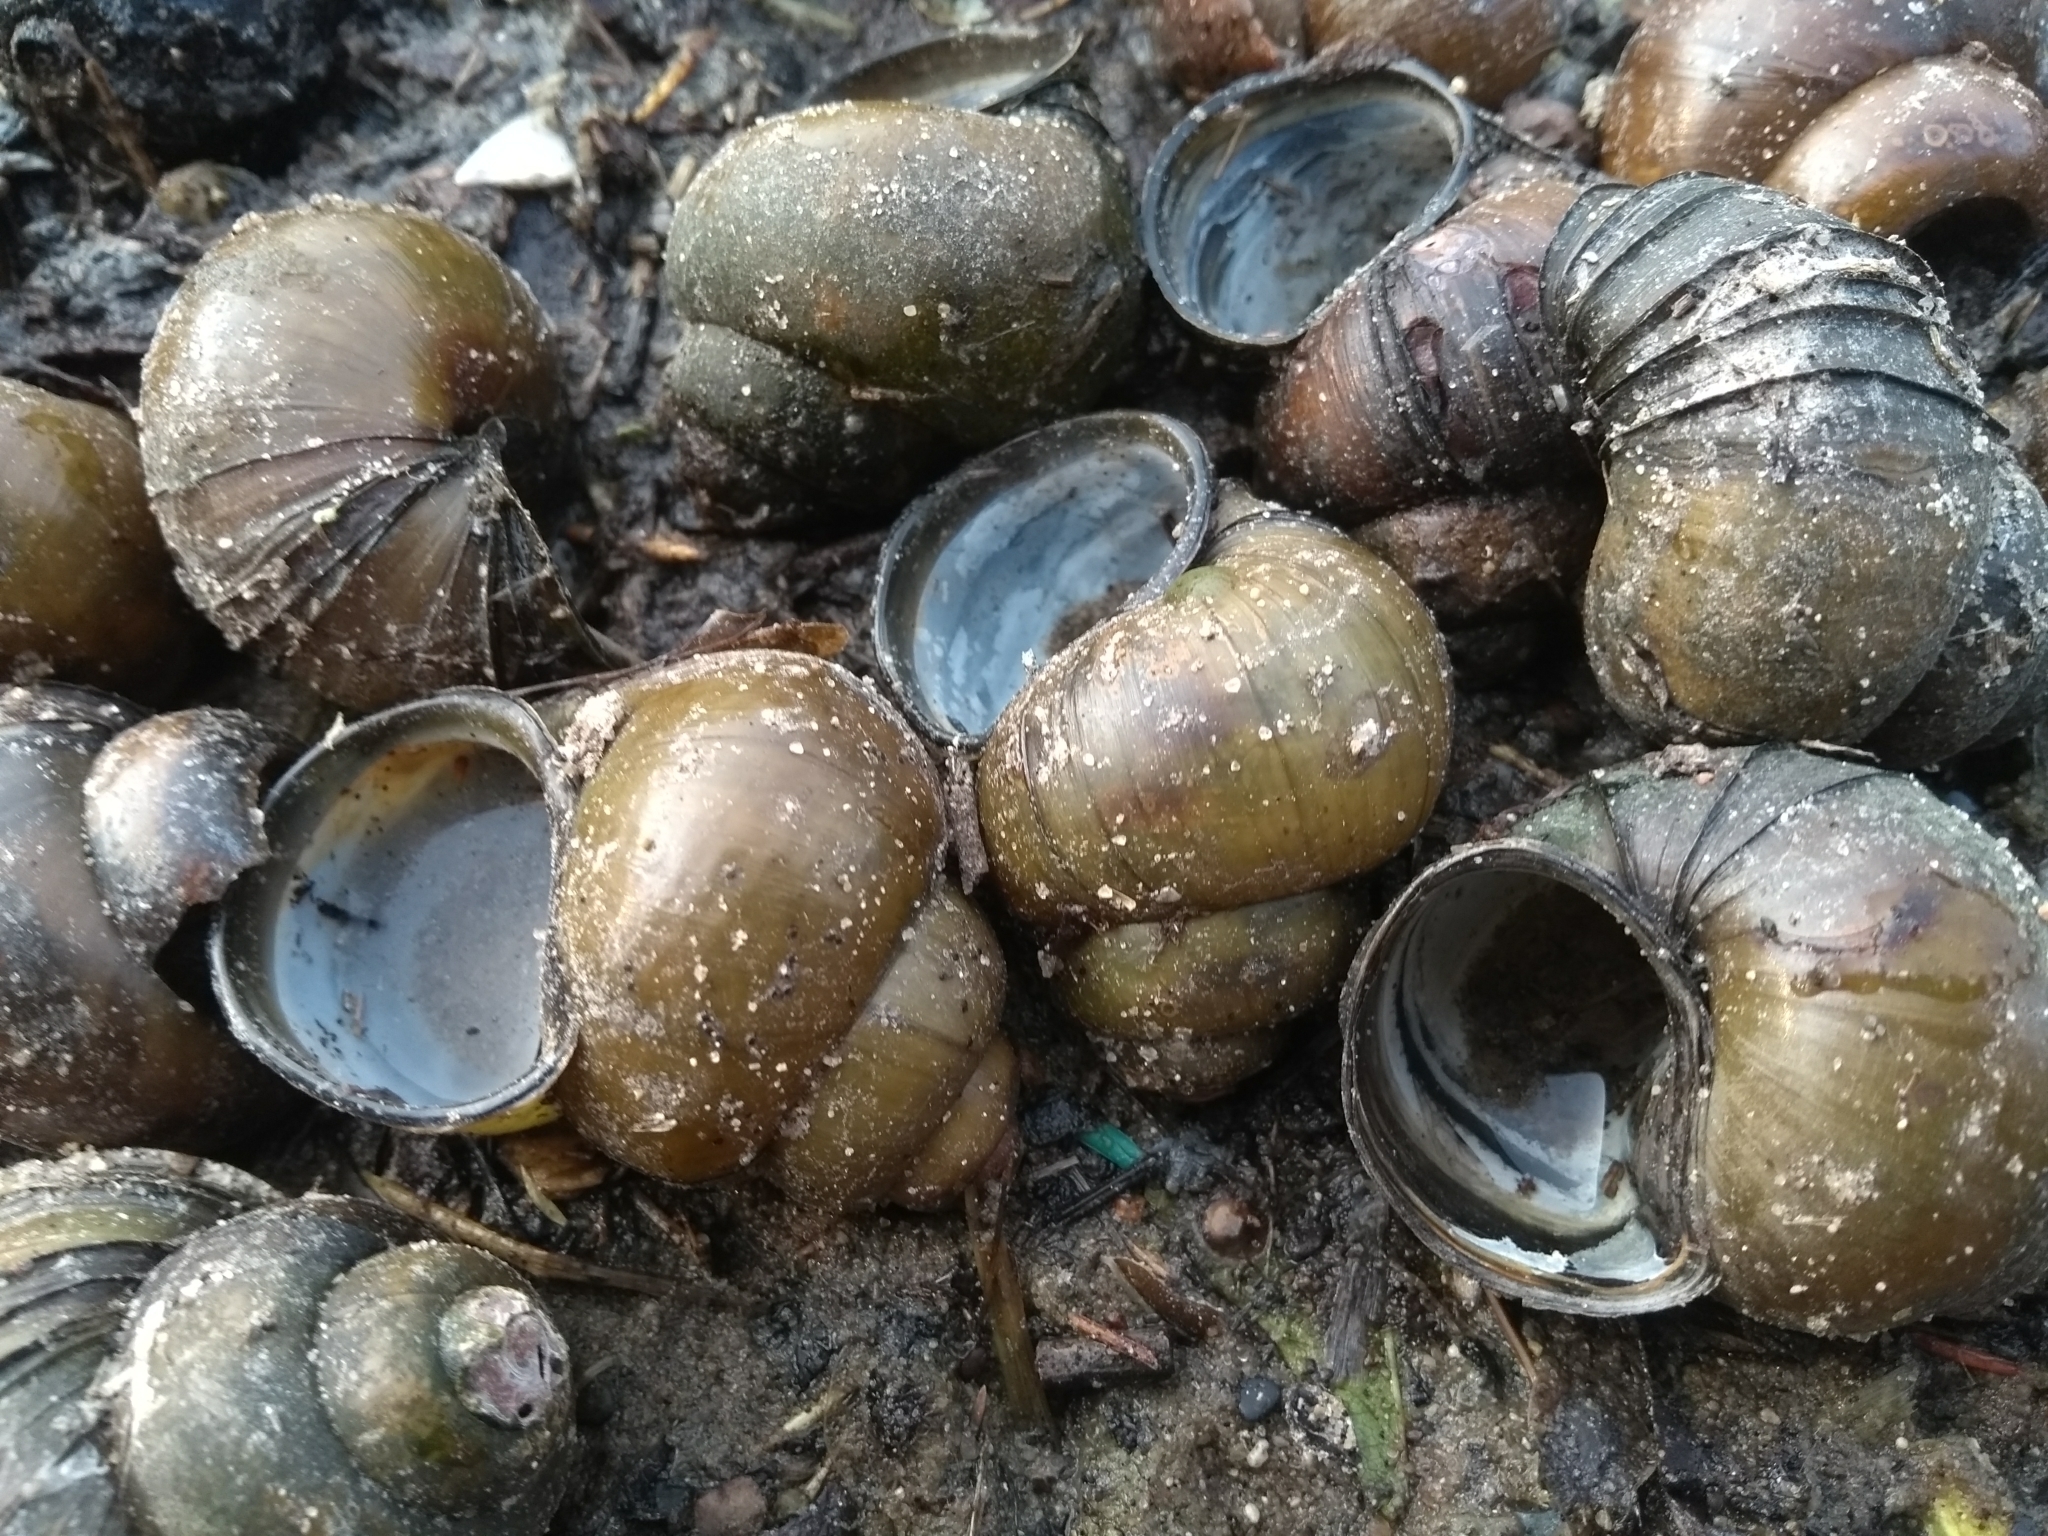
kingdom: Animalia
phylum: Mollusca
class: Gastropoda
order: Architaenioglossa
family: Viviparidae
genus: Cipangopaludina
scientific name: Cipangopaludina chinensis
